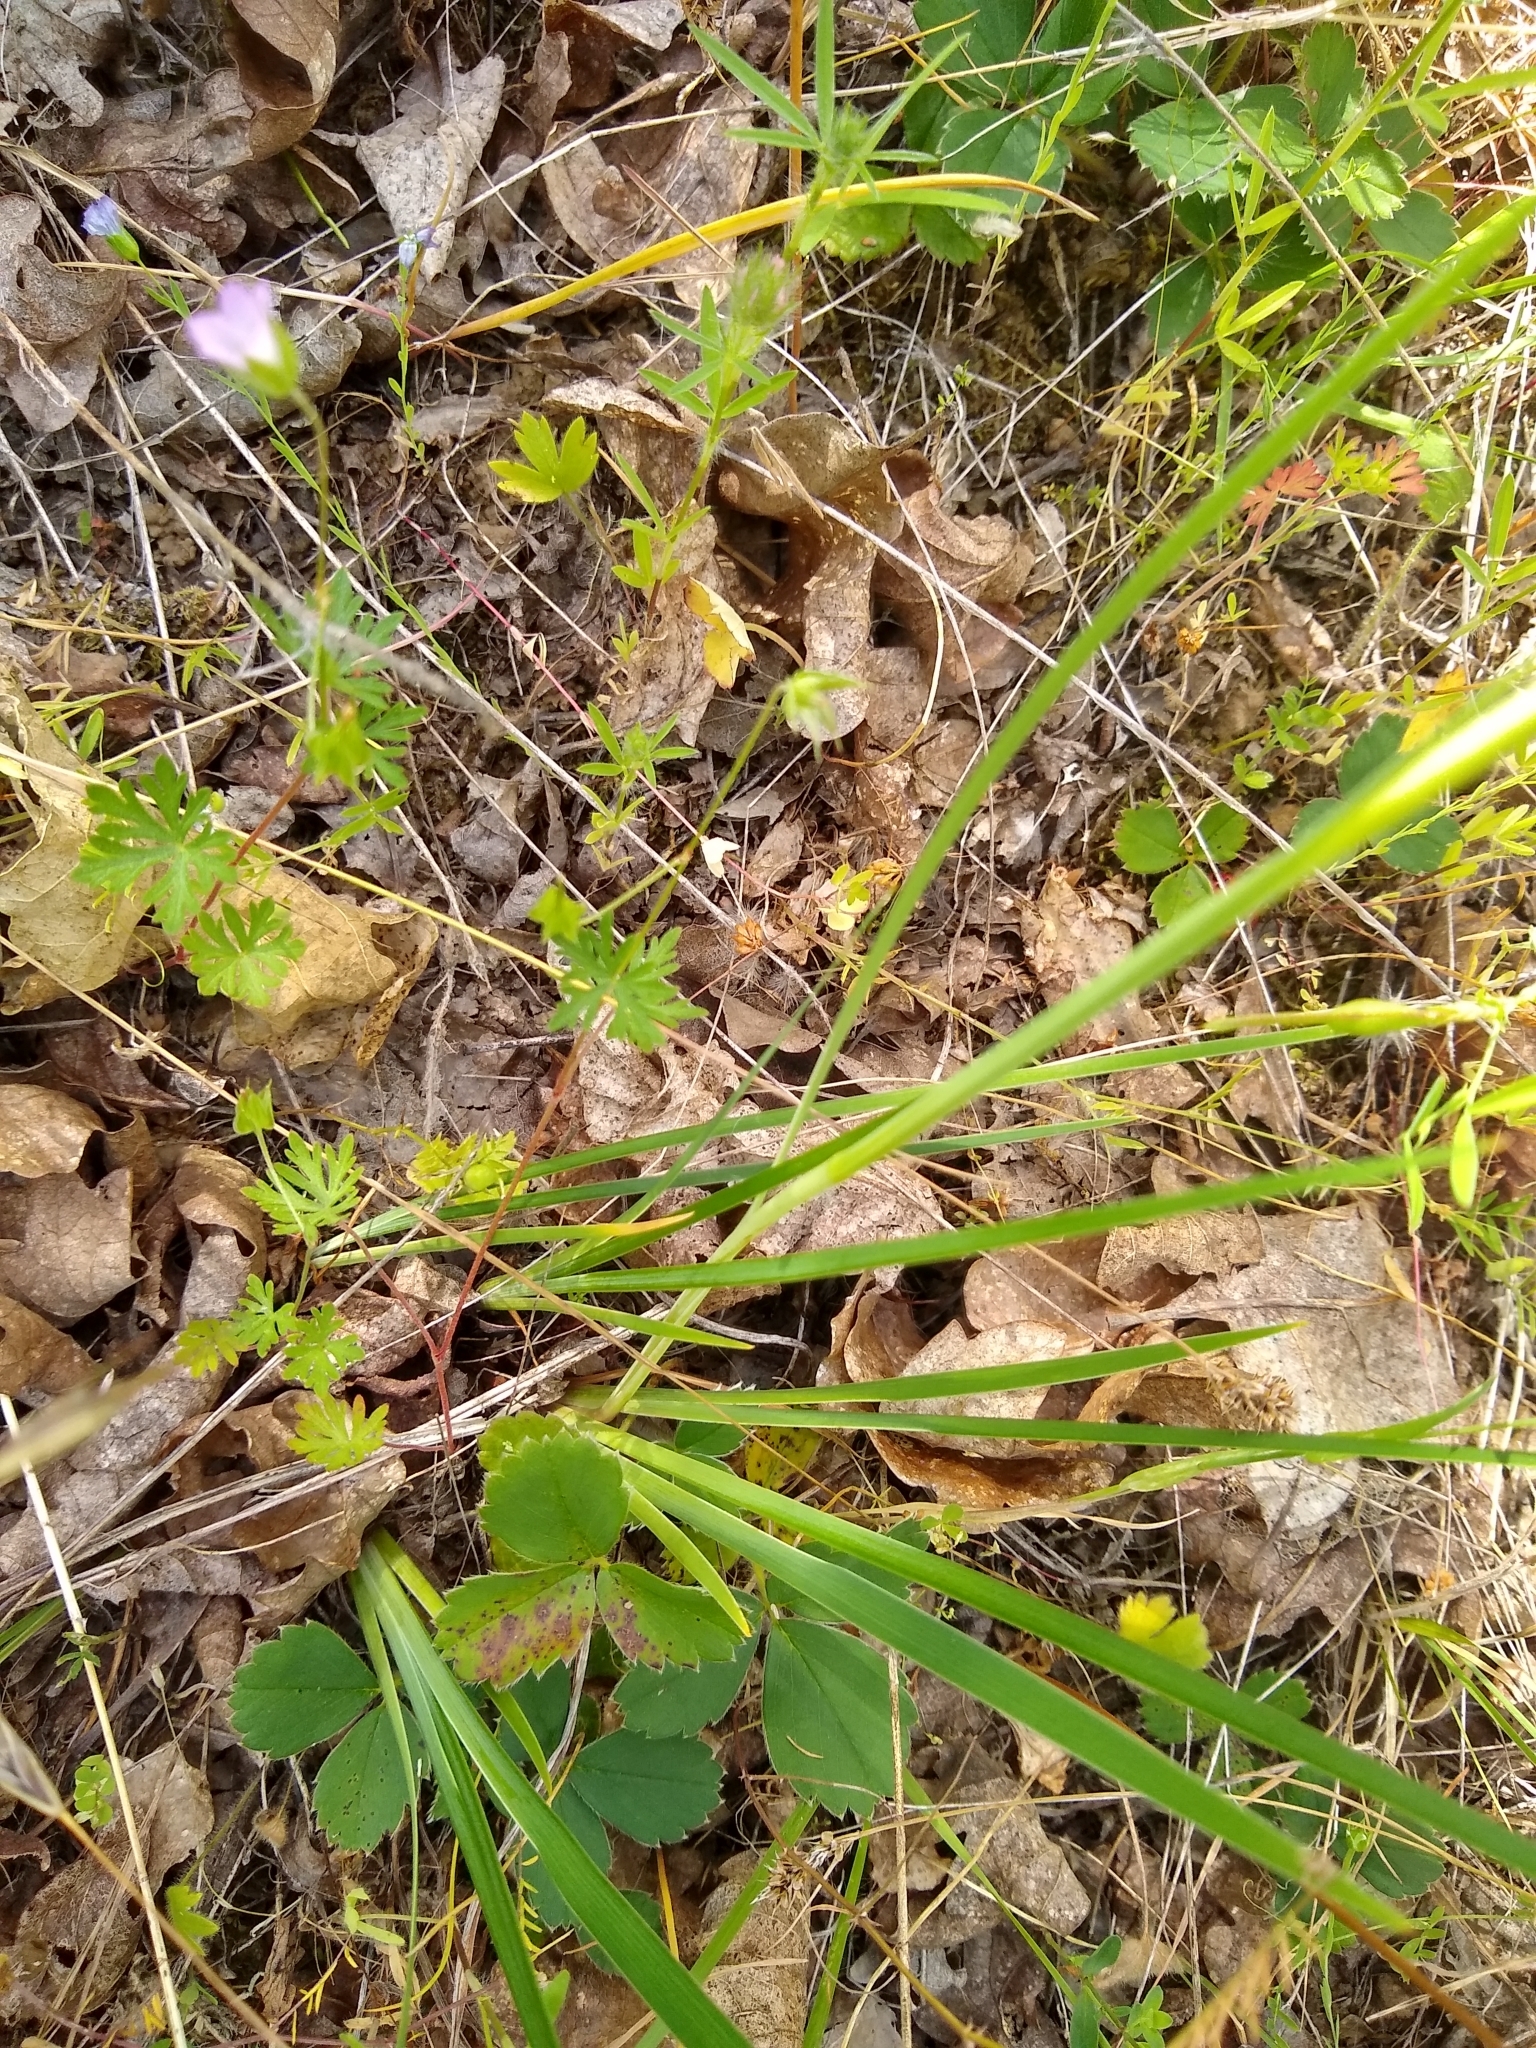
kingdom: Plantae
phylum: Tracheophyta
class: Liliopsida
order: Asparagales
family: Iridaceae
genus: Iris
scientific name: Iris tenax
